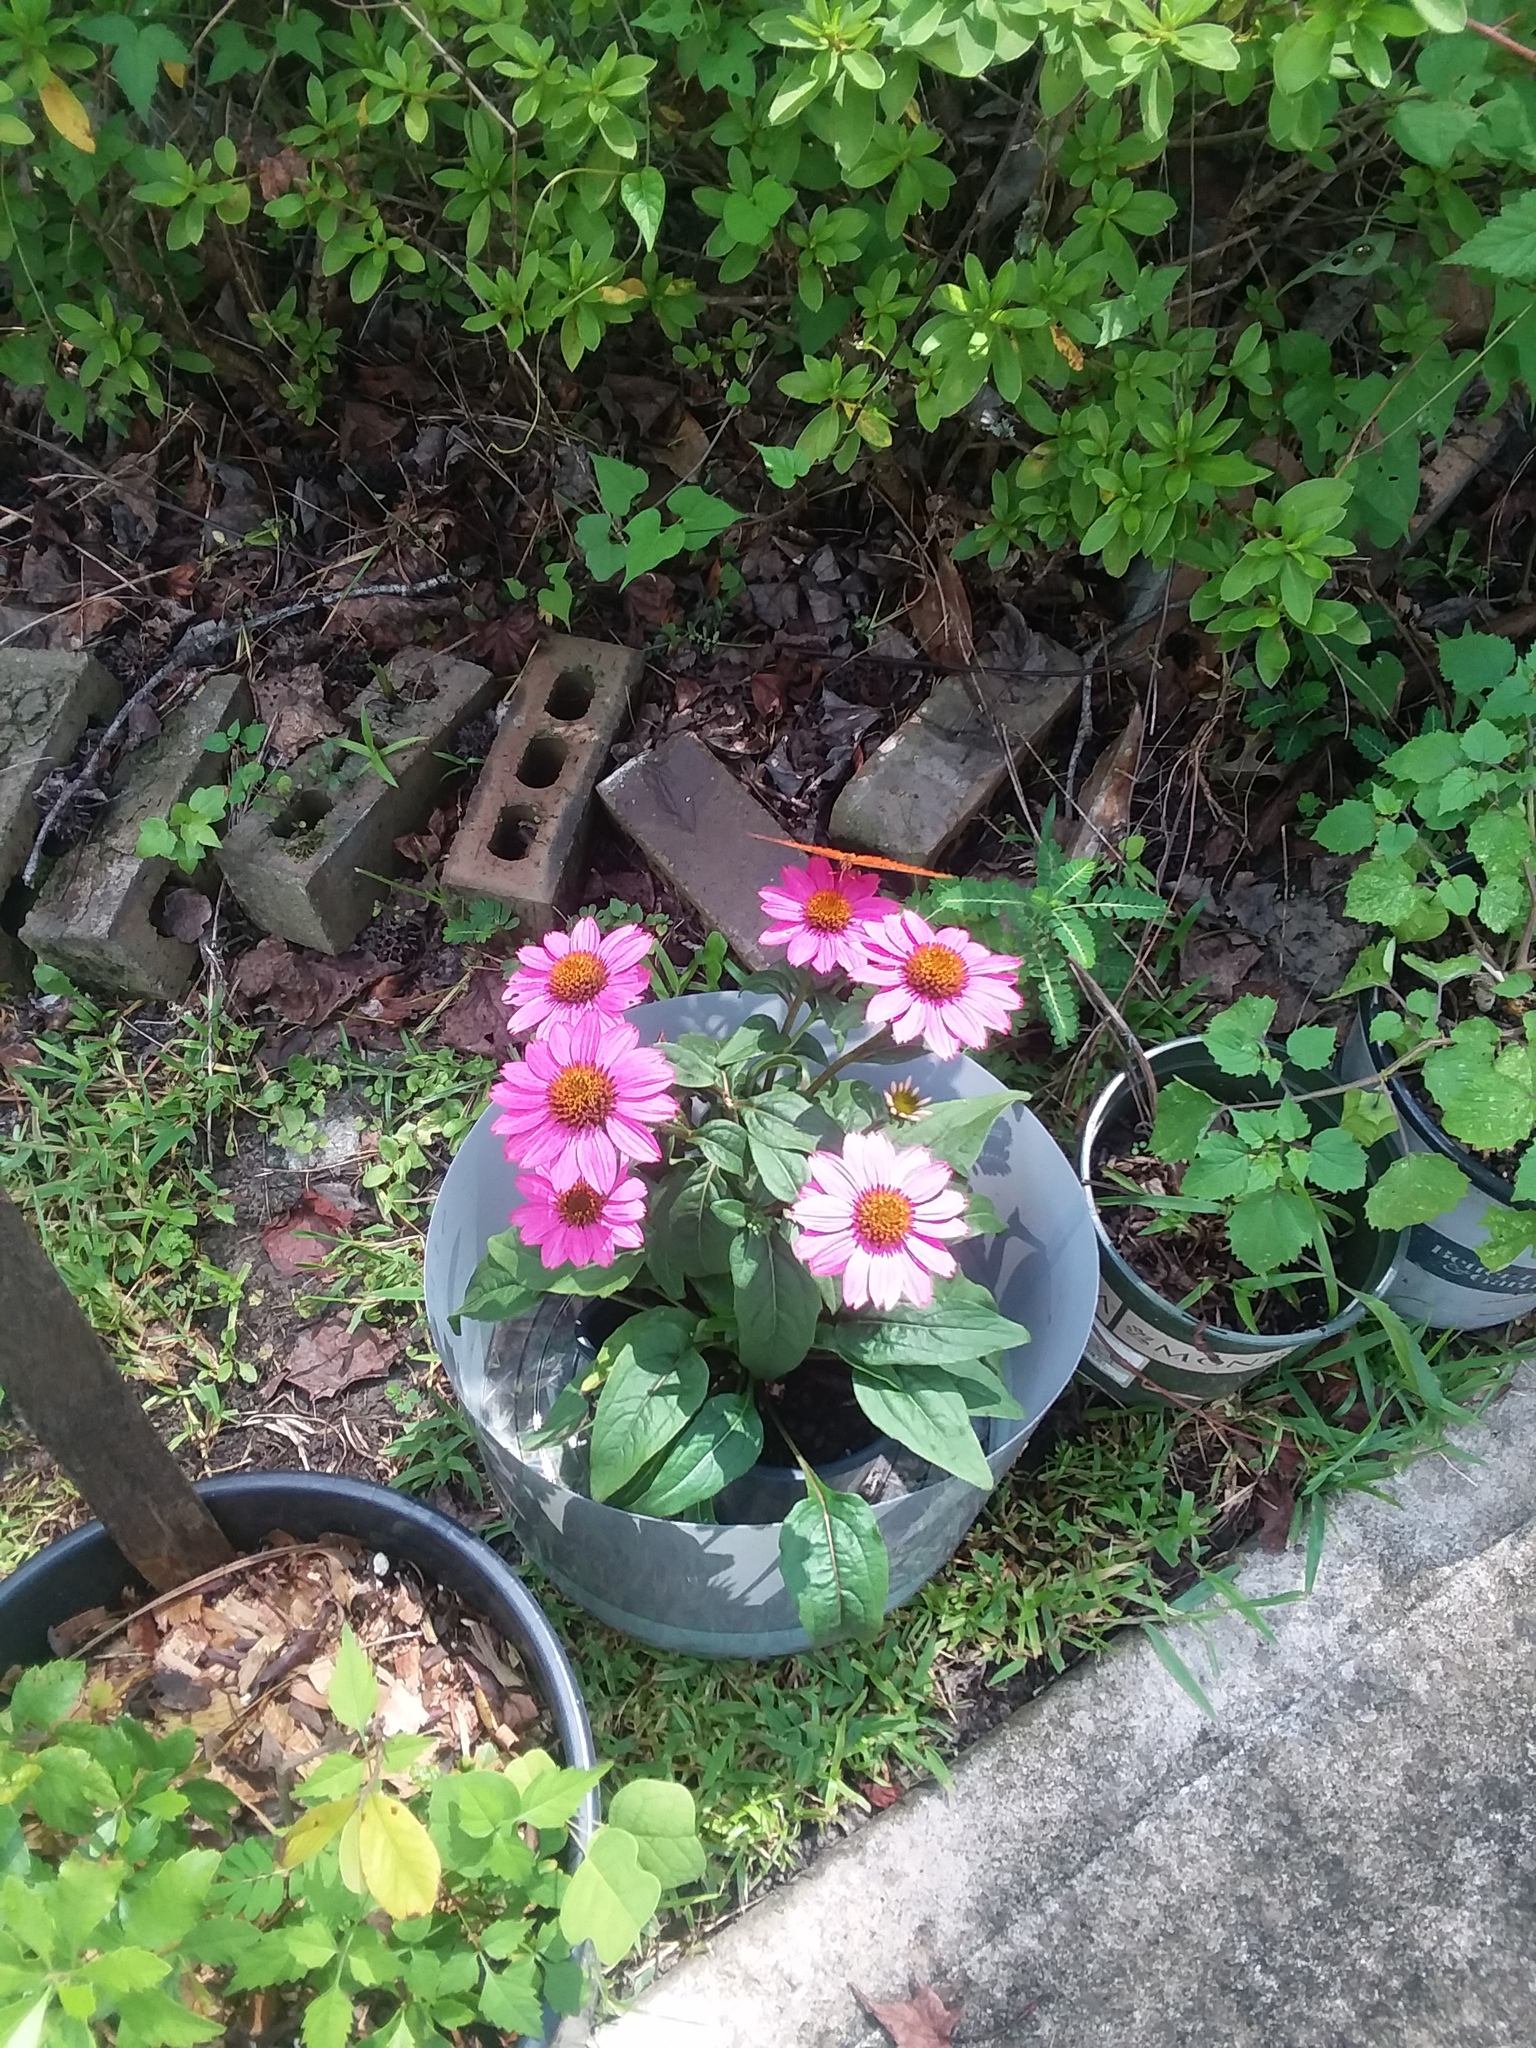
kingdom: Animalia
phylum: Arthropoda
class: Insecta
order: Lepidoptera
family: Nymphalidae
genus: Dione
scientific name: Dione vanillae
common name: Gulf fritillary
